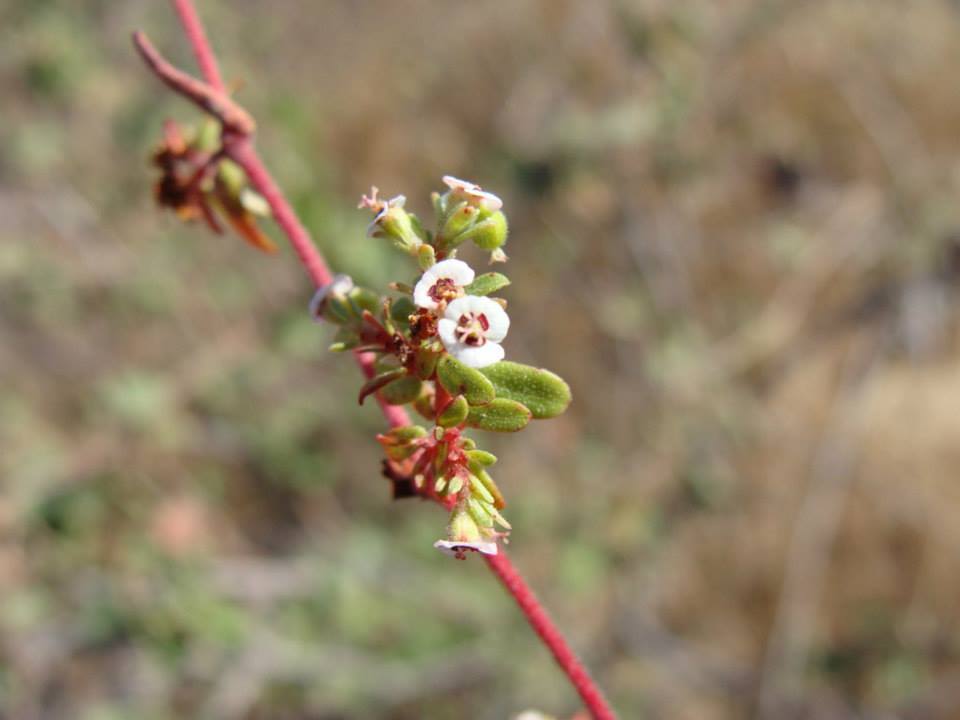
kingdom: Plantae
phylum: Tracheophyta
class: Magnoliopsida
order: Malpighiales
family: Euphorbiaceae
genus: Euphorbia
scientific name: Euphorbia polycarpa
